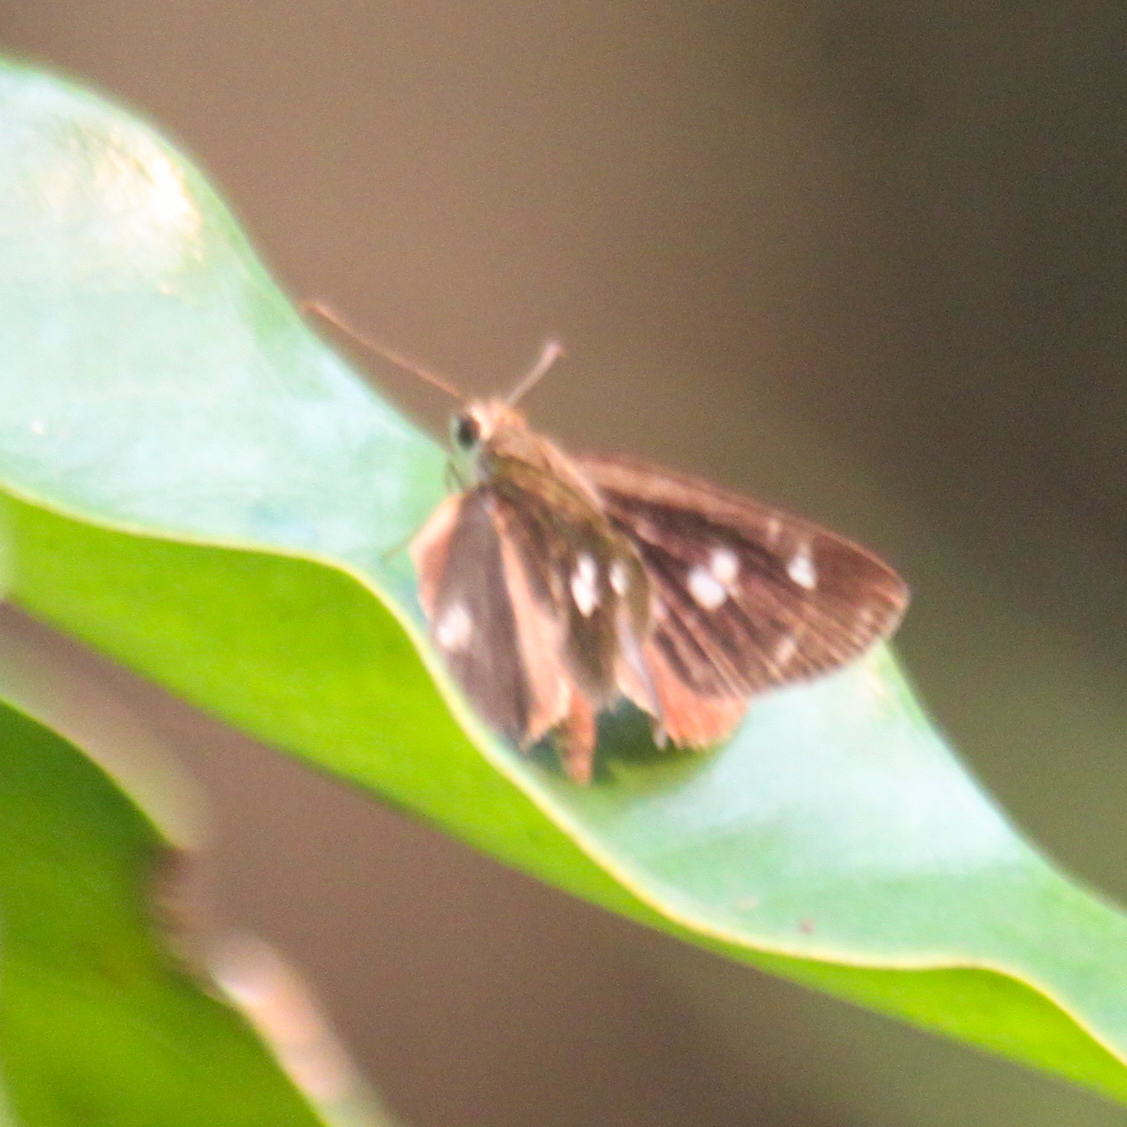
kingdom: Animalia
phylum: Arthropoda
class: Insecta
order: Lepidoptera
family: Hesperiidae
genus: Suada
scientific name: Suada swerga
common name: Grass bob
